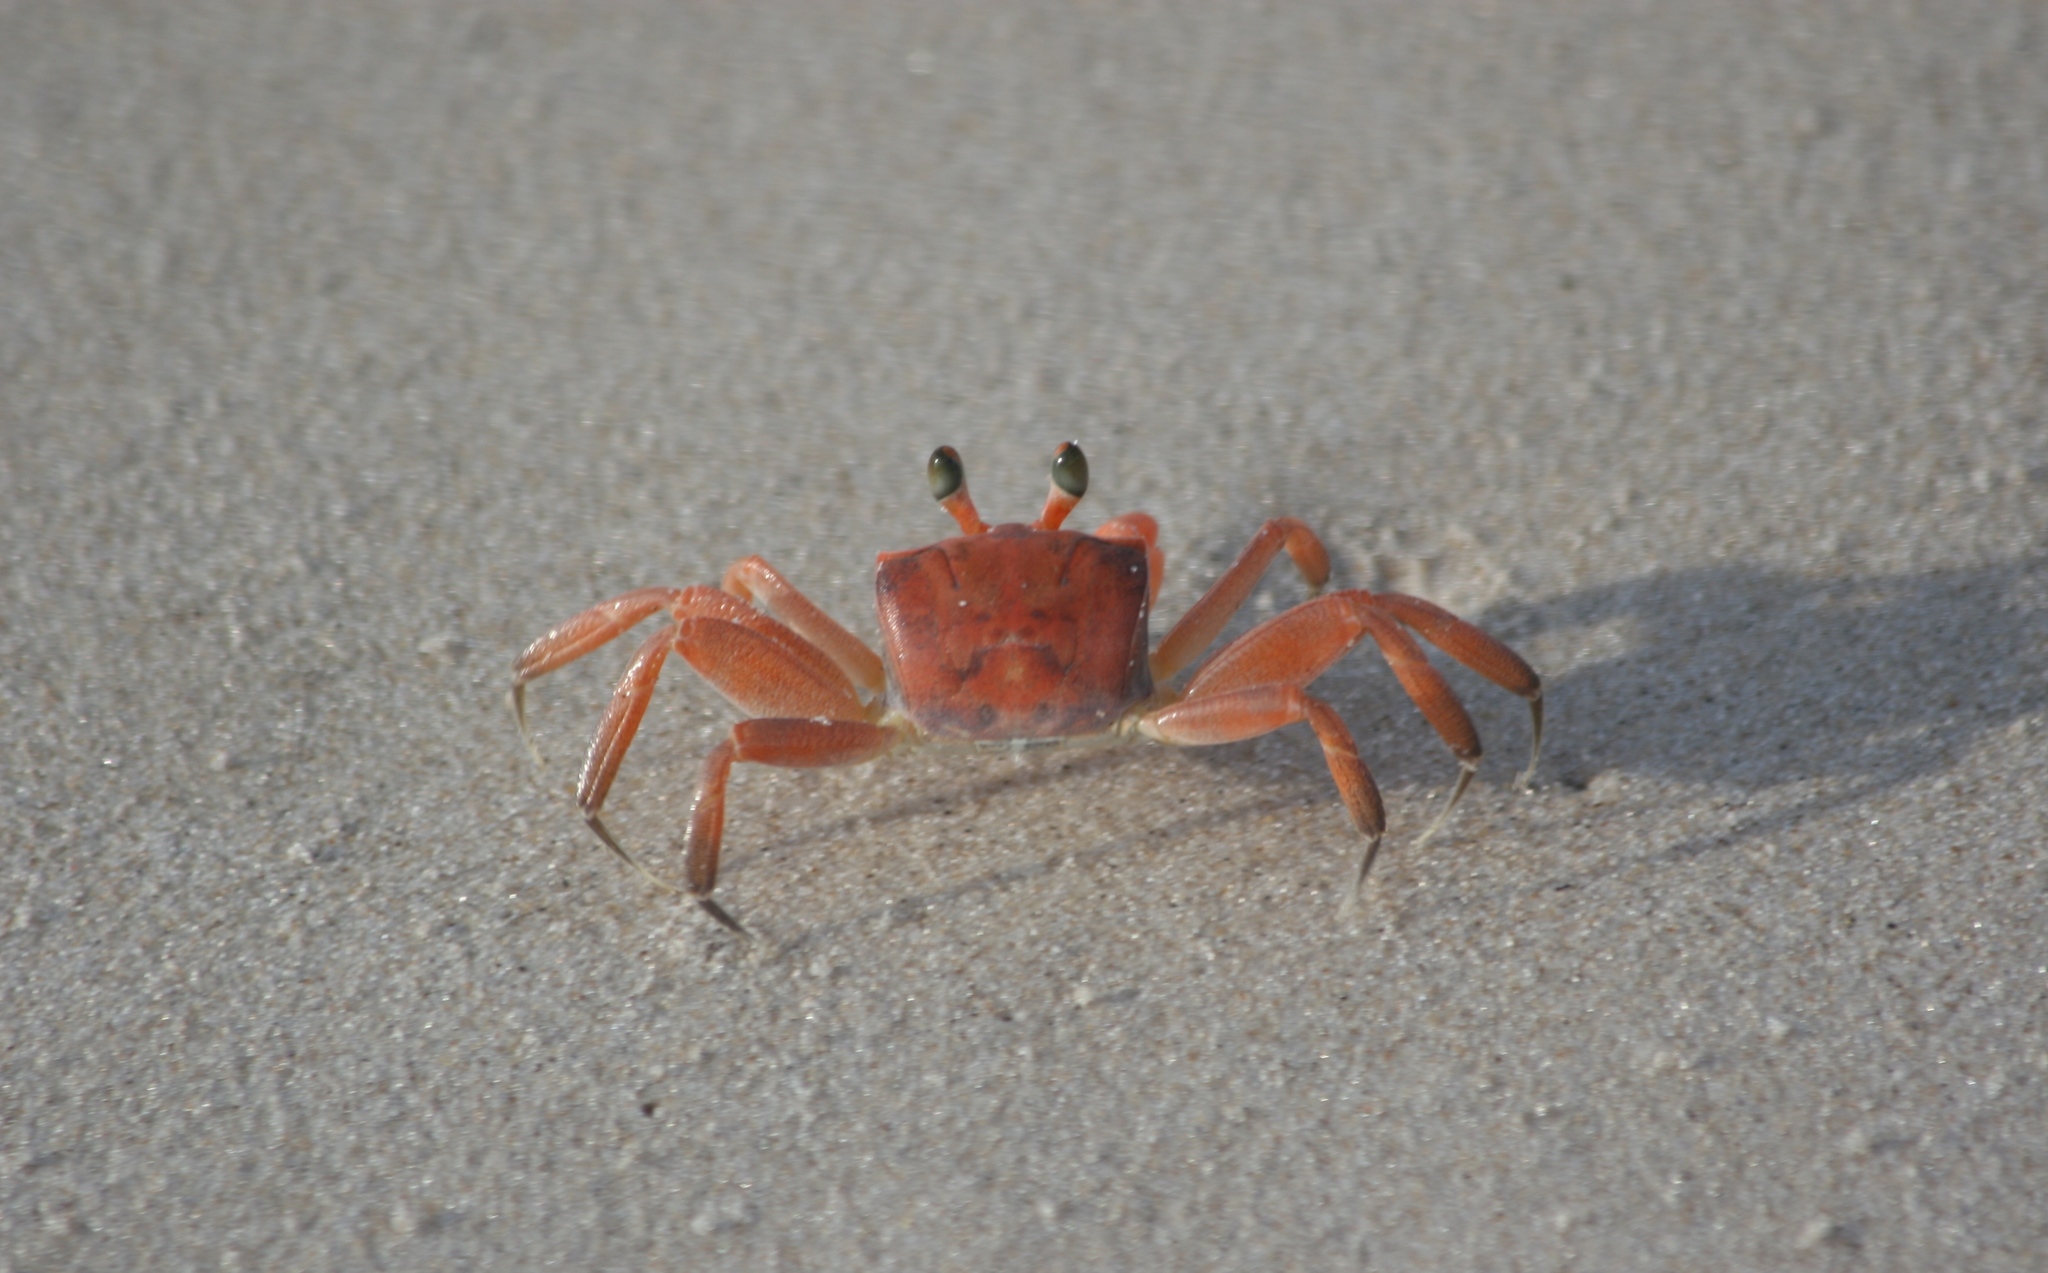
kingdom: Animalia
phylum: Arthropoda
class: Malacostraca
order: Decapoda
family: Ocypodidae
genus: Ocypode
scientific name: Ocypode africana
